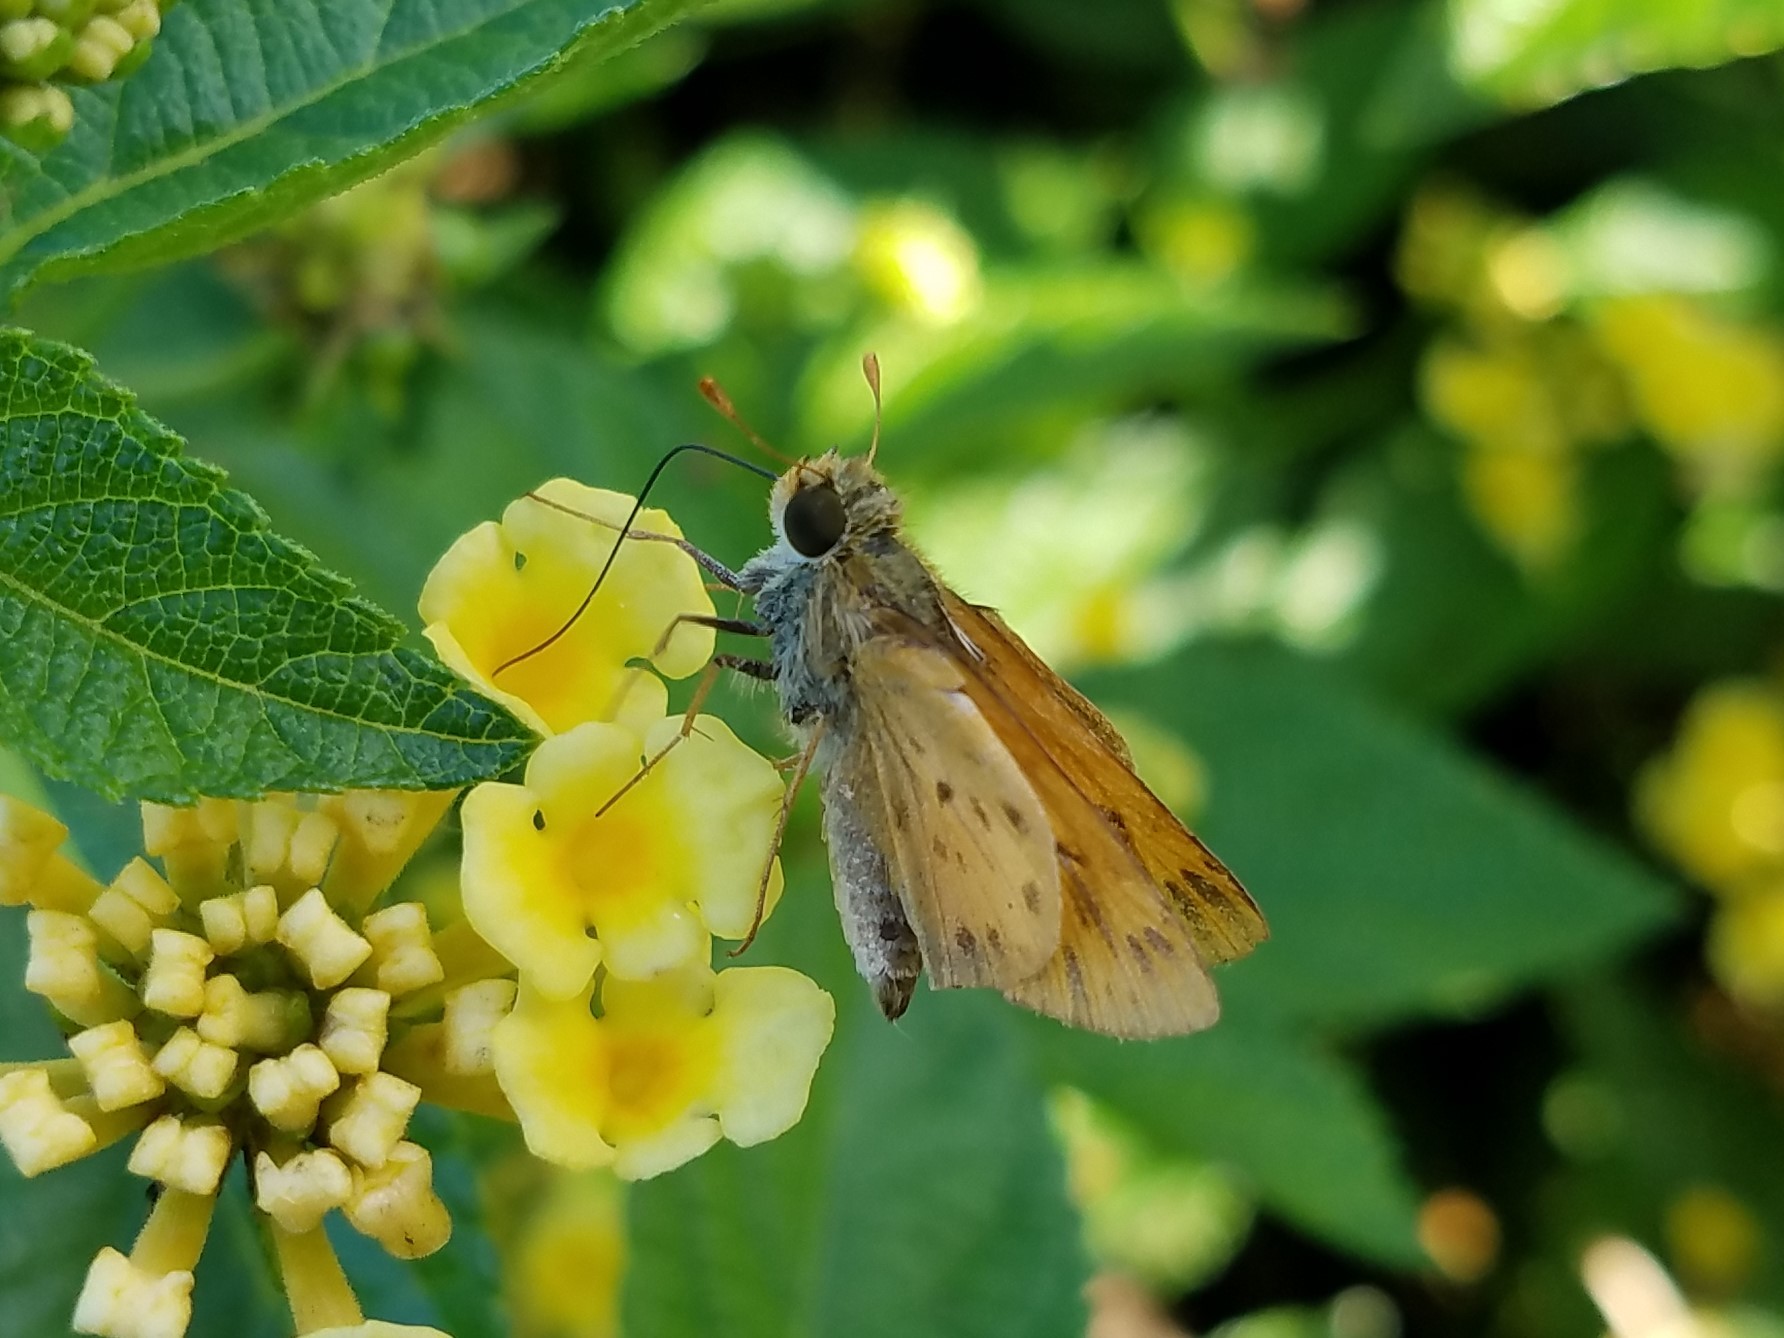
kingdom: Animalia
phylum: Arthropoda
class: Insecta
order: Lepidoptera
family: Hesperiidae
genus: Hylephila
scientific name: Hylephila phyleus
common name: Fiery skipper
